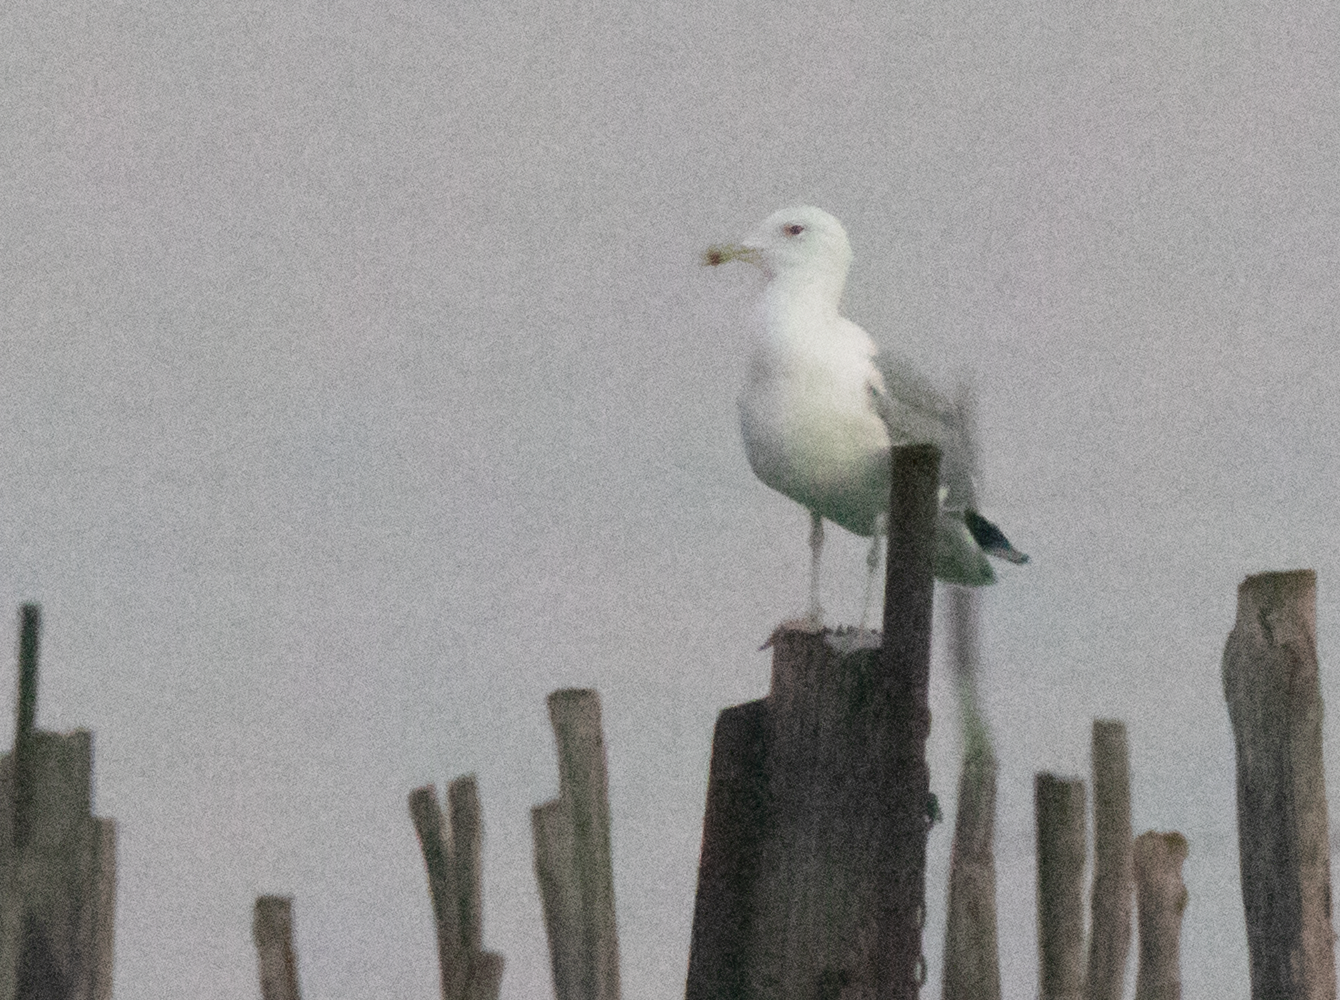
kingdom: Animalia
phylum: Chordata
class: Aves
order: Charadriiformes
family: Laridae
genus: Larus
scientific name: Larus cachinnans
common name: Caspian gull
